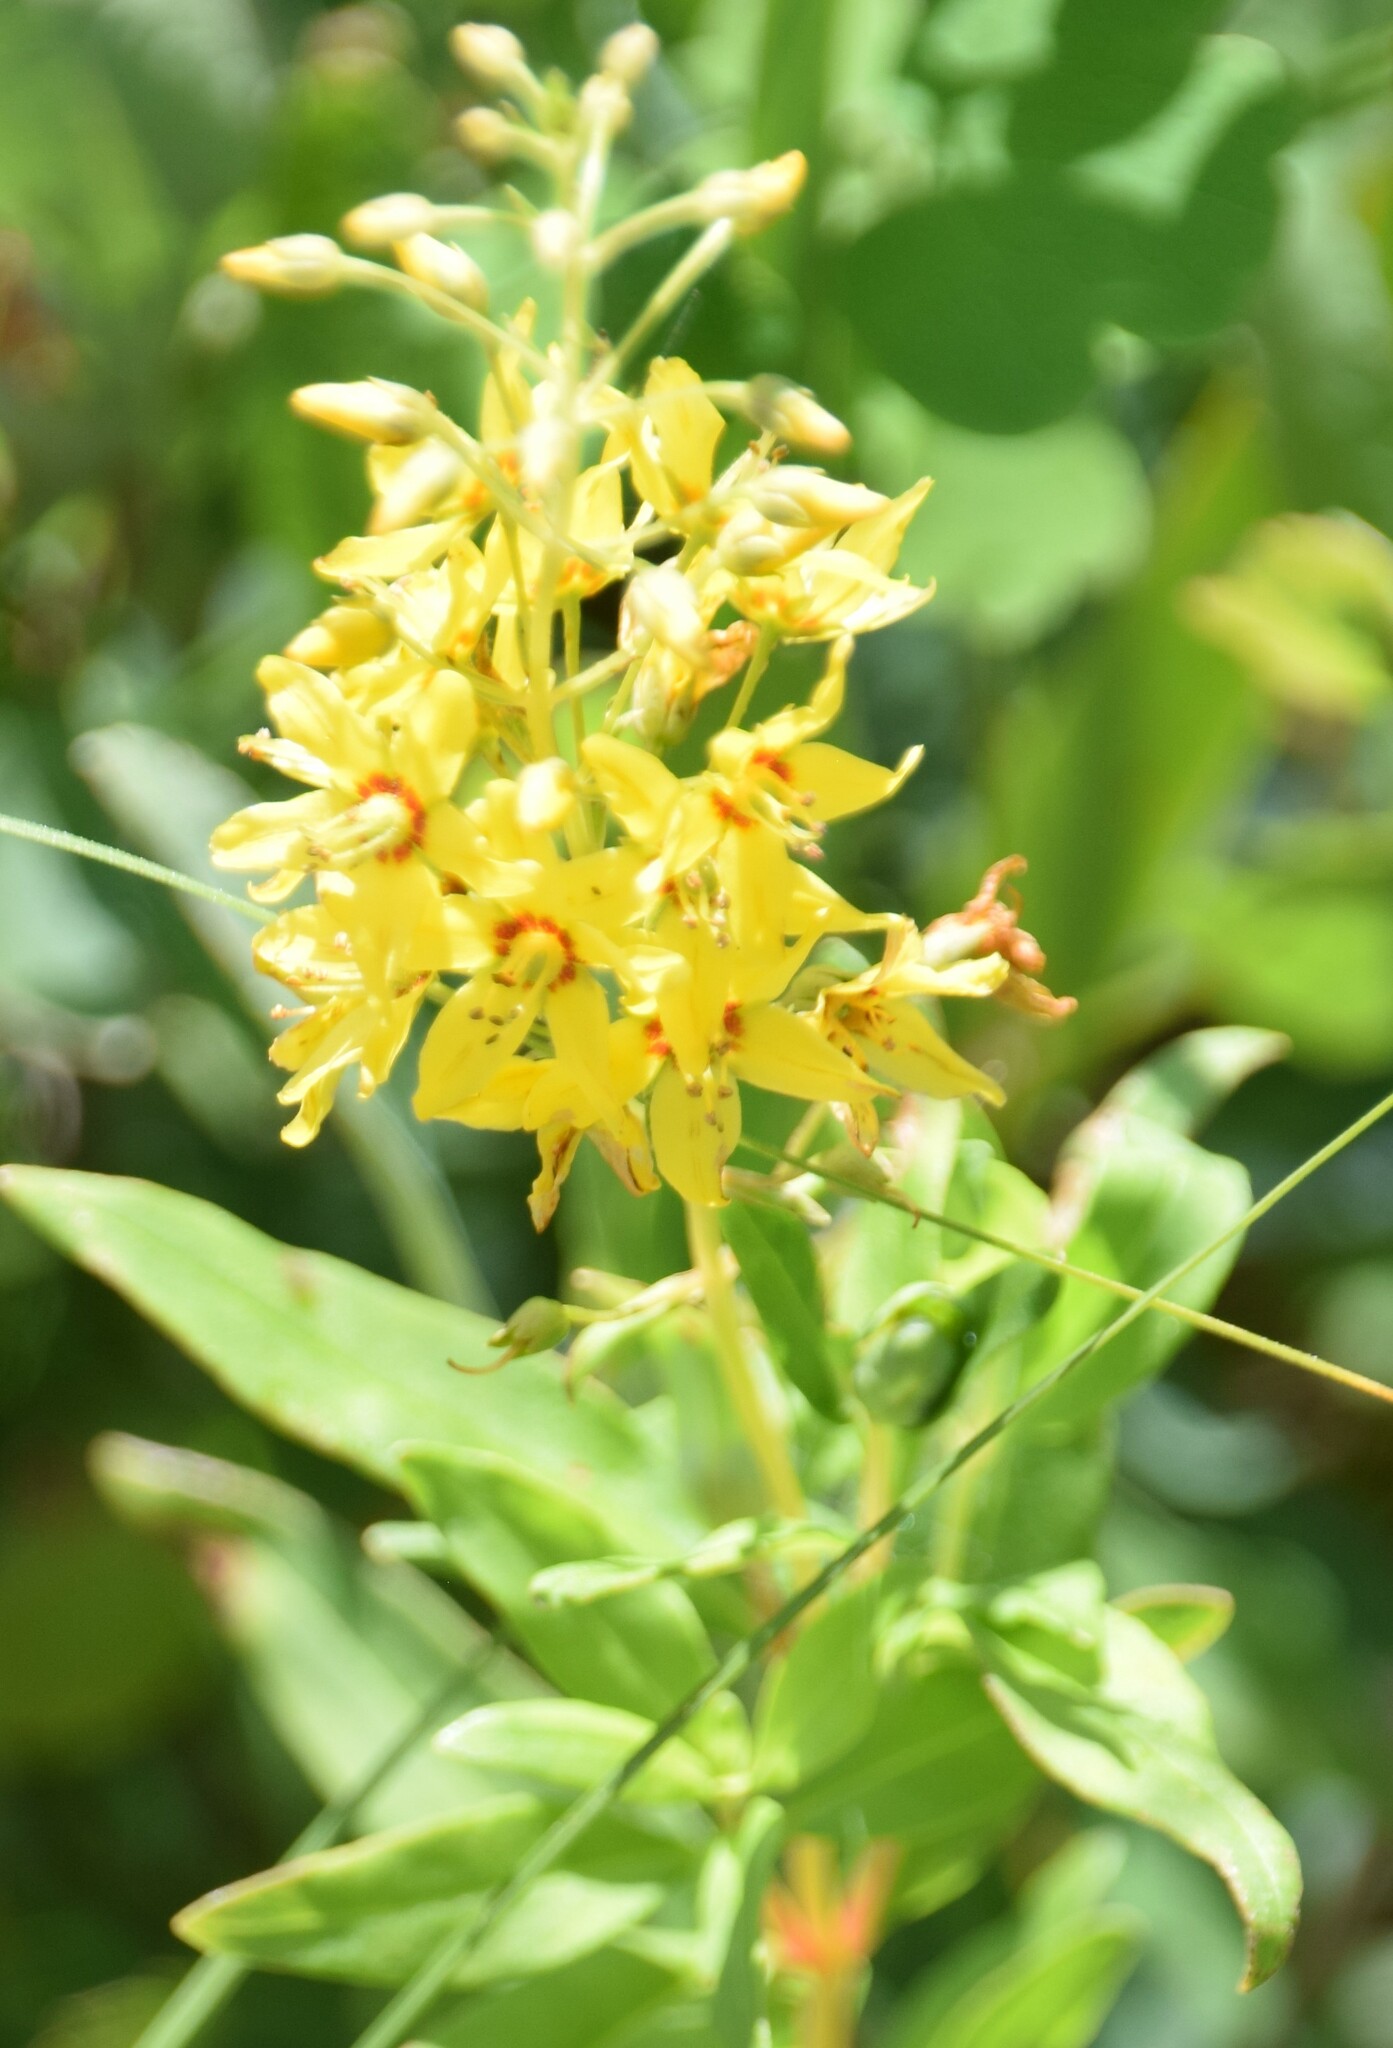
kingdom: Plantae
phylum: Tracheophyta
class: Magnoliopsida
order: Ericales
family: Primulaceae
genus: Lysimachia
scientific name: Lysimachia terrestris
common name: Lake loosestrife
